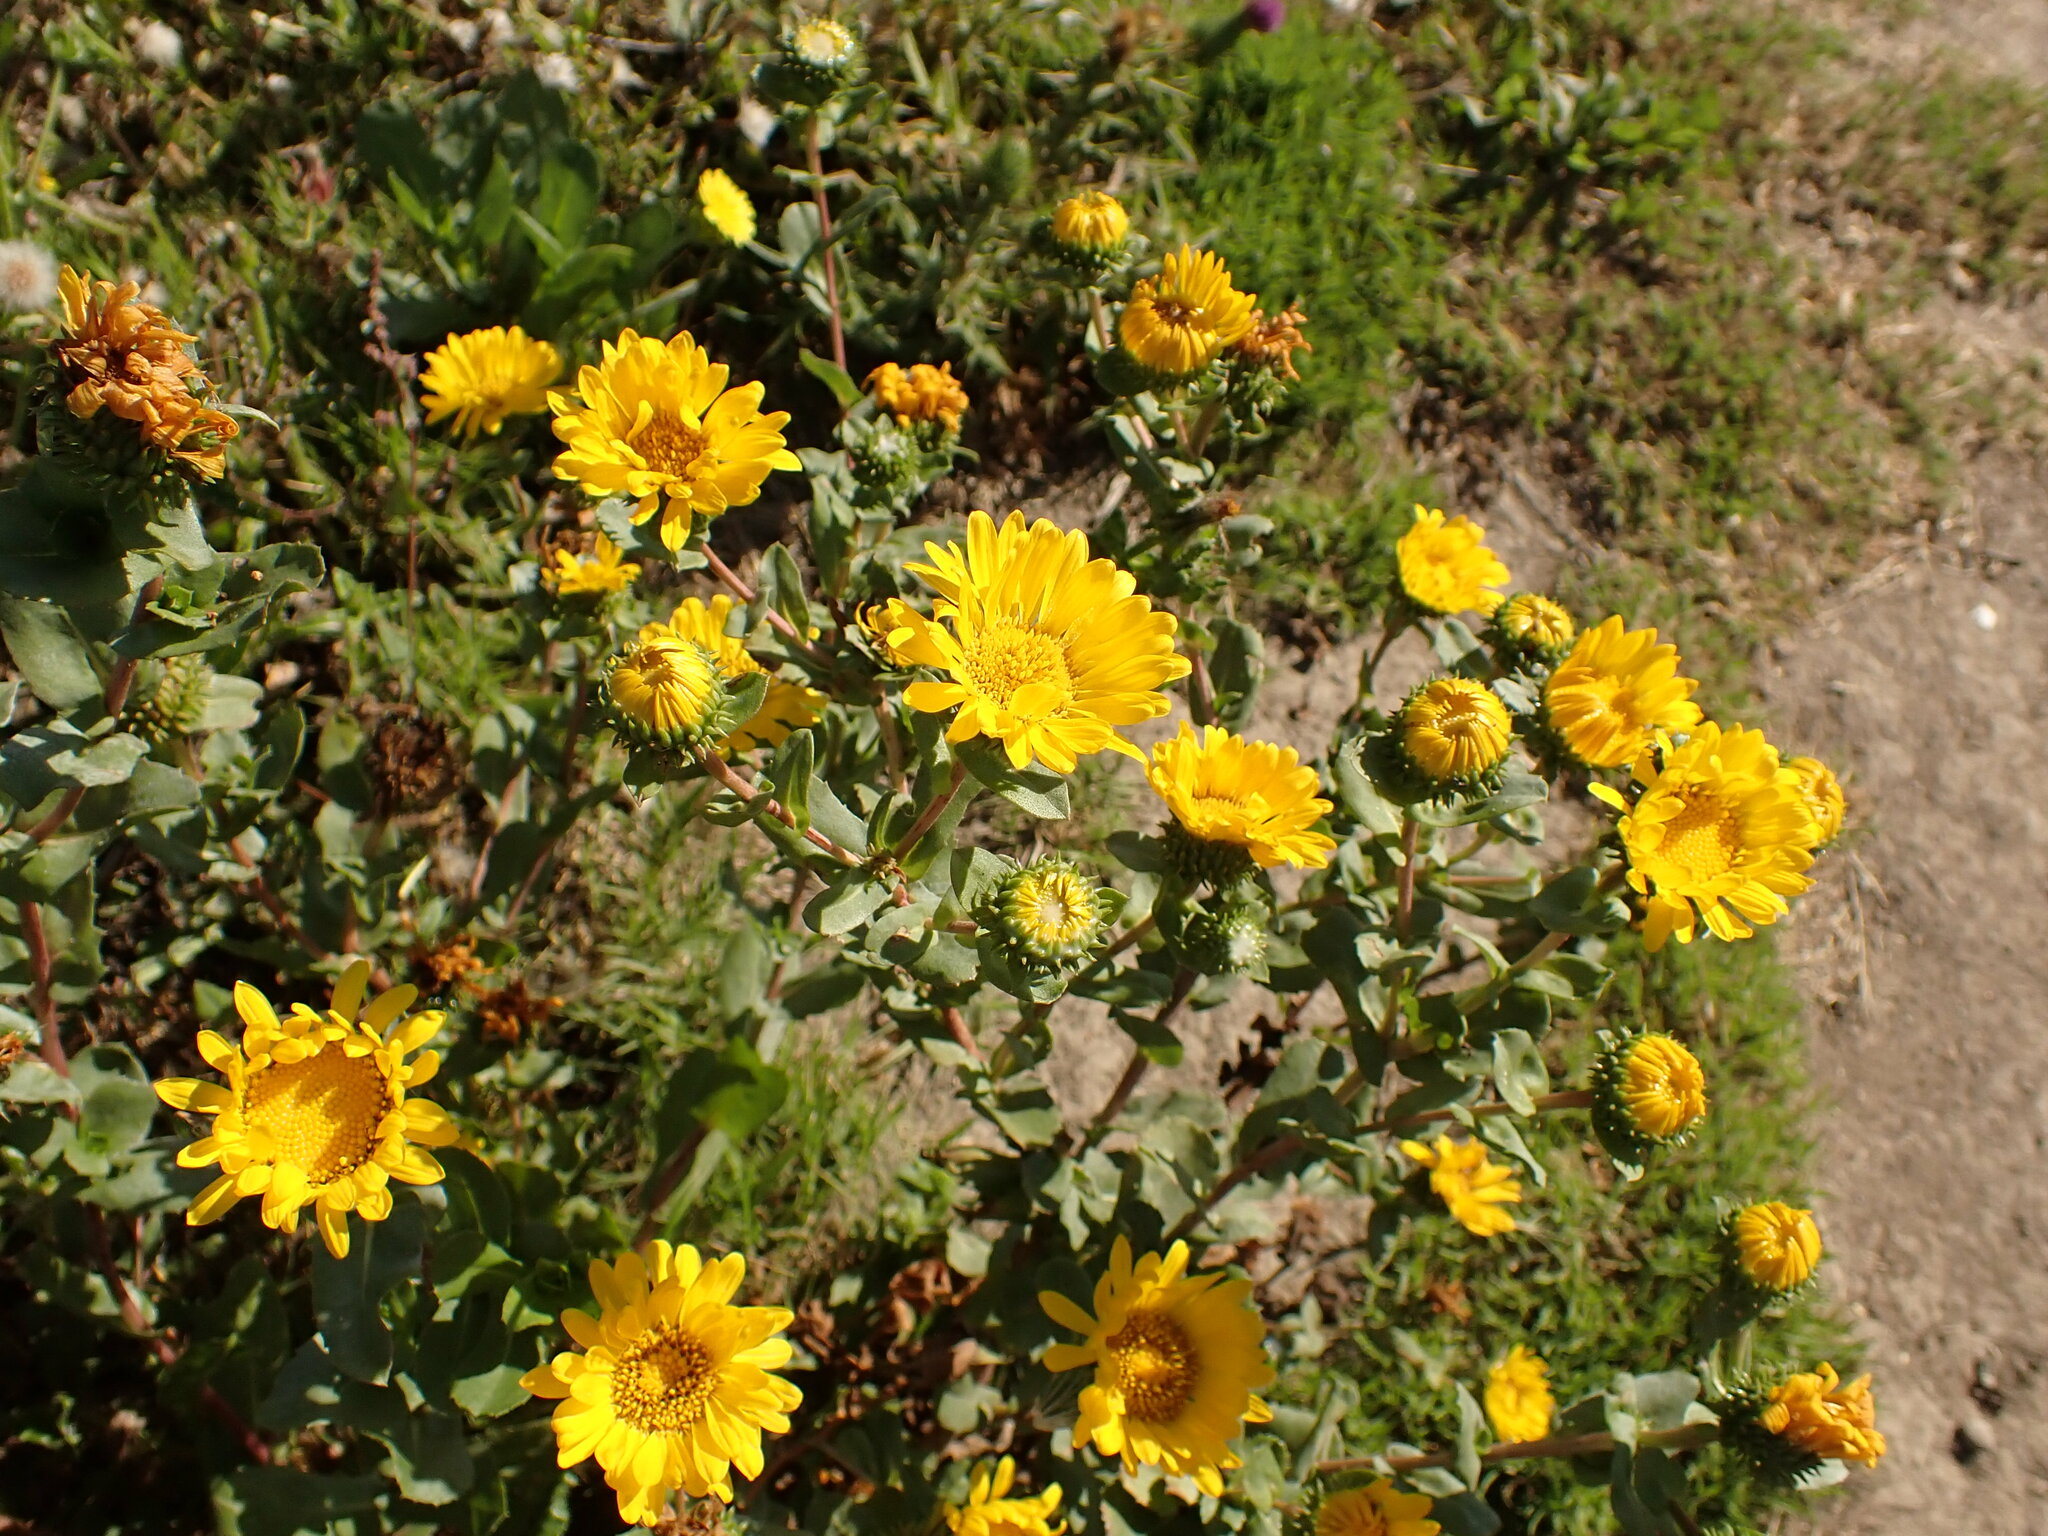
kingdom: Plantae
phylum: Tracheophyta
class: Magnoliopsida
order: Asterales
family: Asteraceae
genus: Grindelia
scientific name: Grindelia hirsutula
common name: Hairy gumweed
